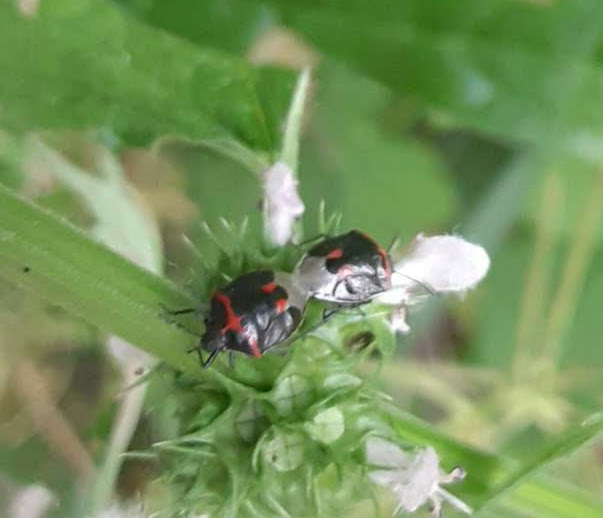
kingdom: Animalia
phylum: Arthropoda
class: Insecta
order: Hemiptera
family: Pentatomidae
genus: Cosmopepla
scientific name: Cosmopepla lintneriana
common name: Twice-stabbed stink bug
